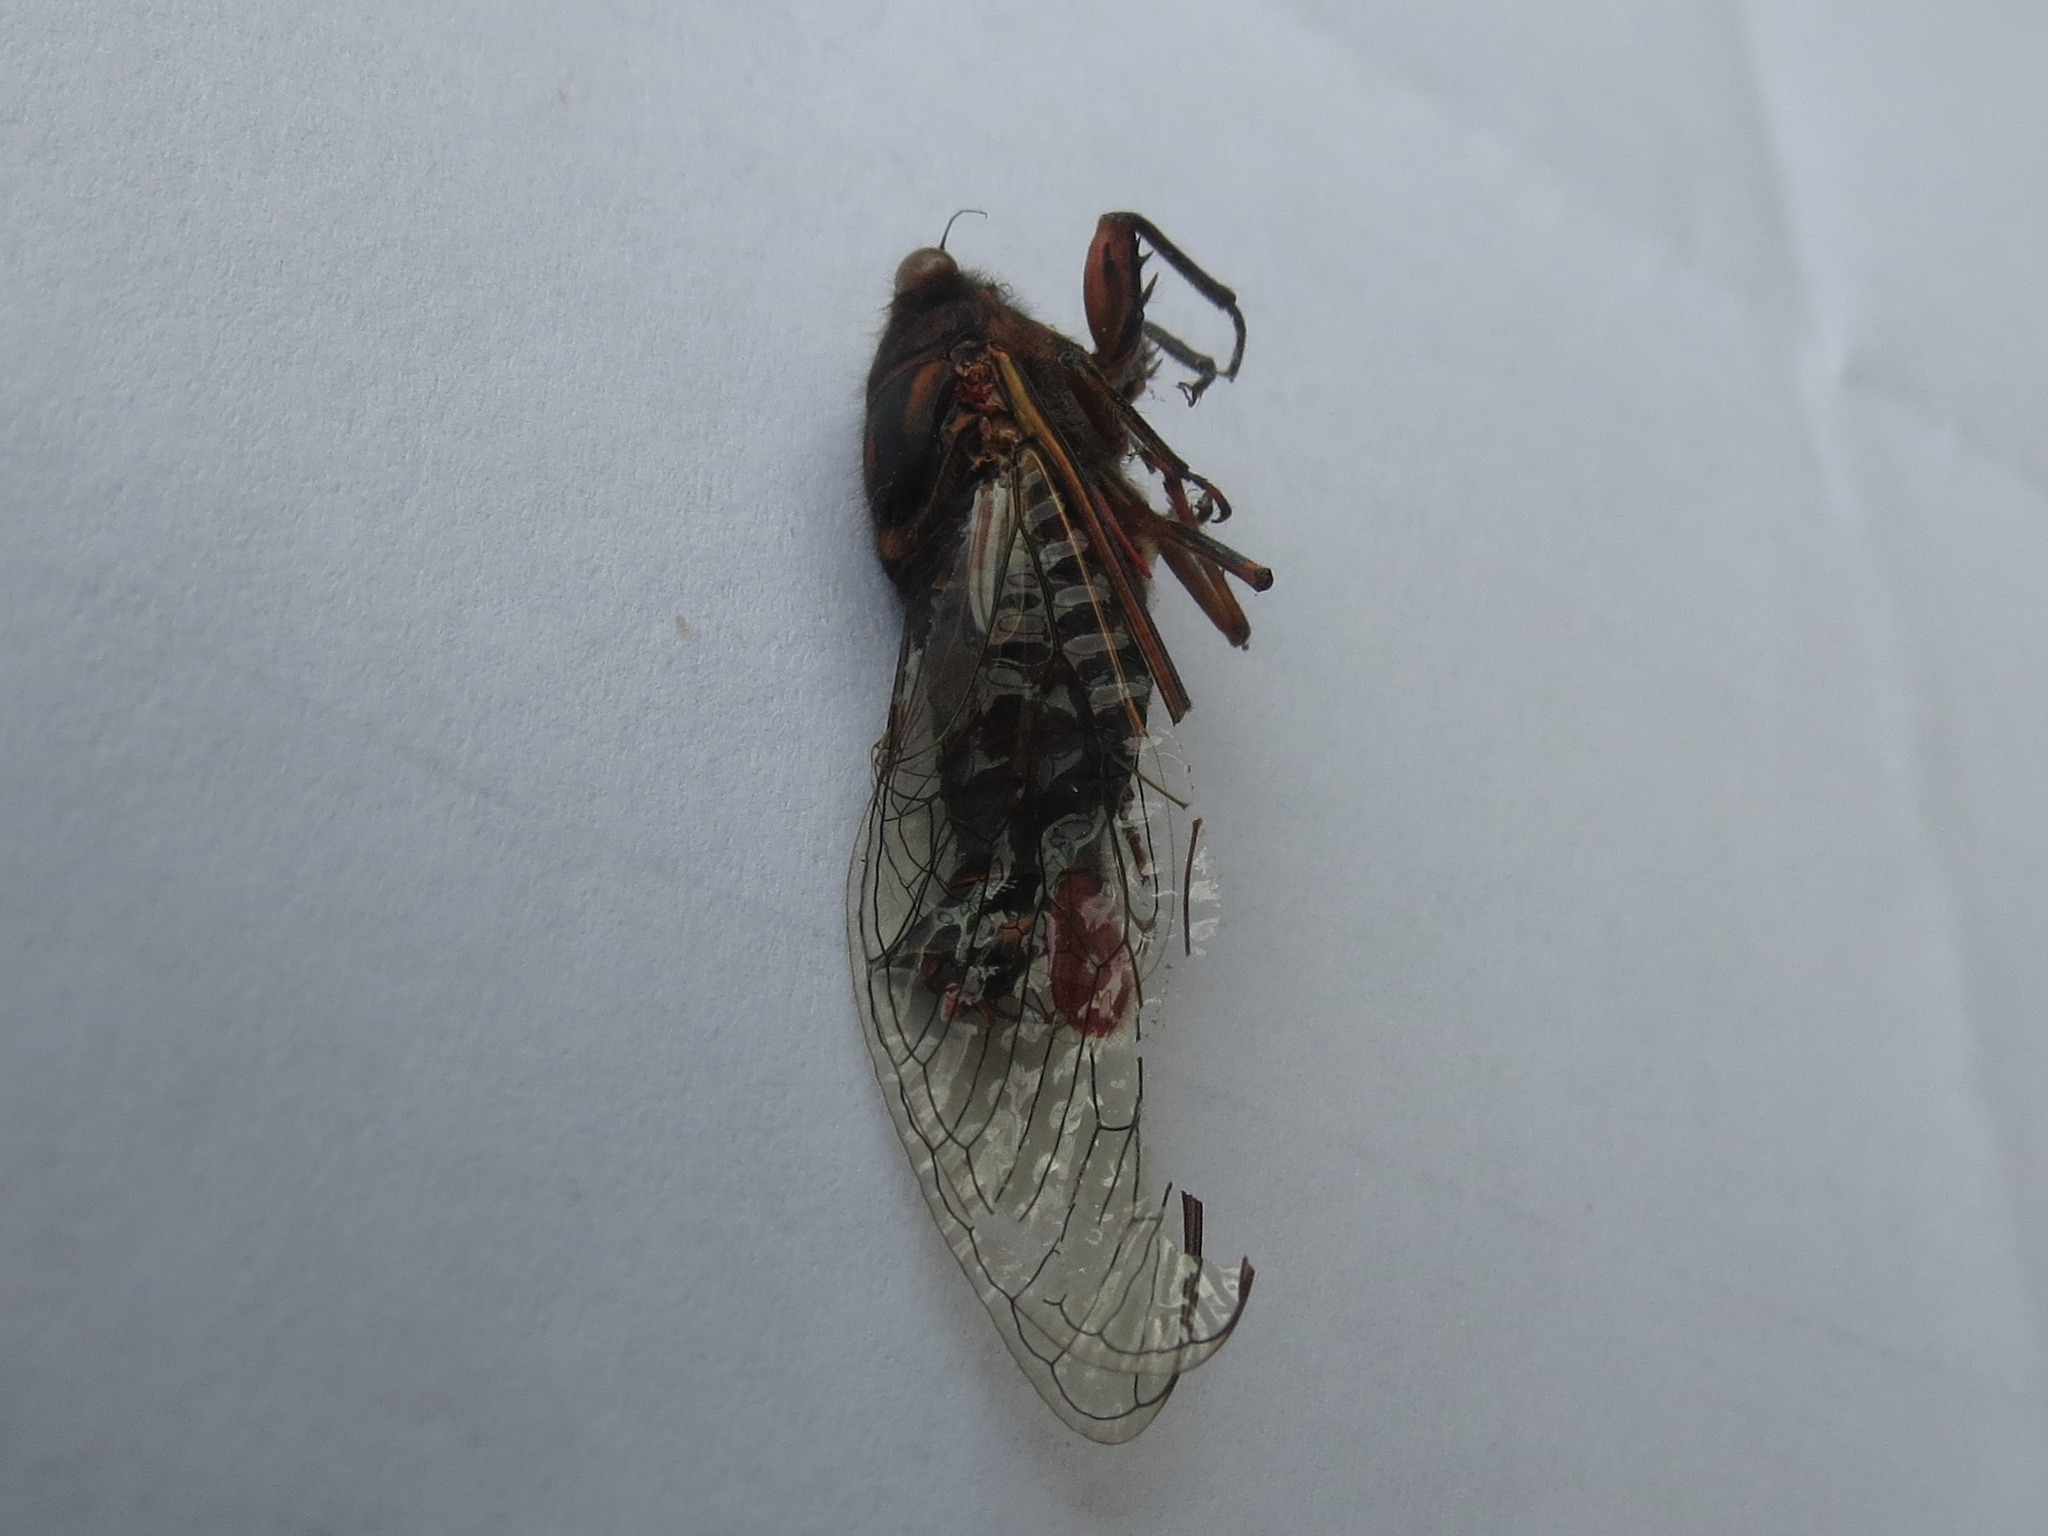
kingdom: Animalia
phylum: Arthropoda
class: Insecta
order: Hemiptera
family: Cicadidae
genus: Yoyetta
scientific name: Yoyetta timothyi
